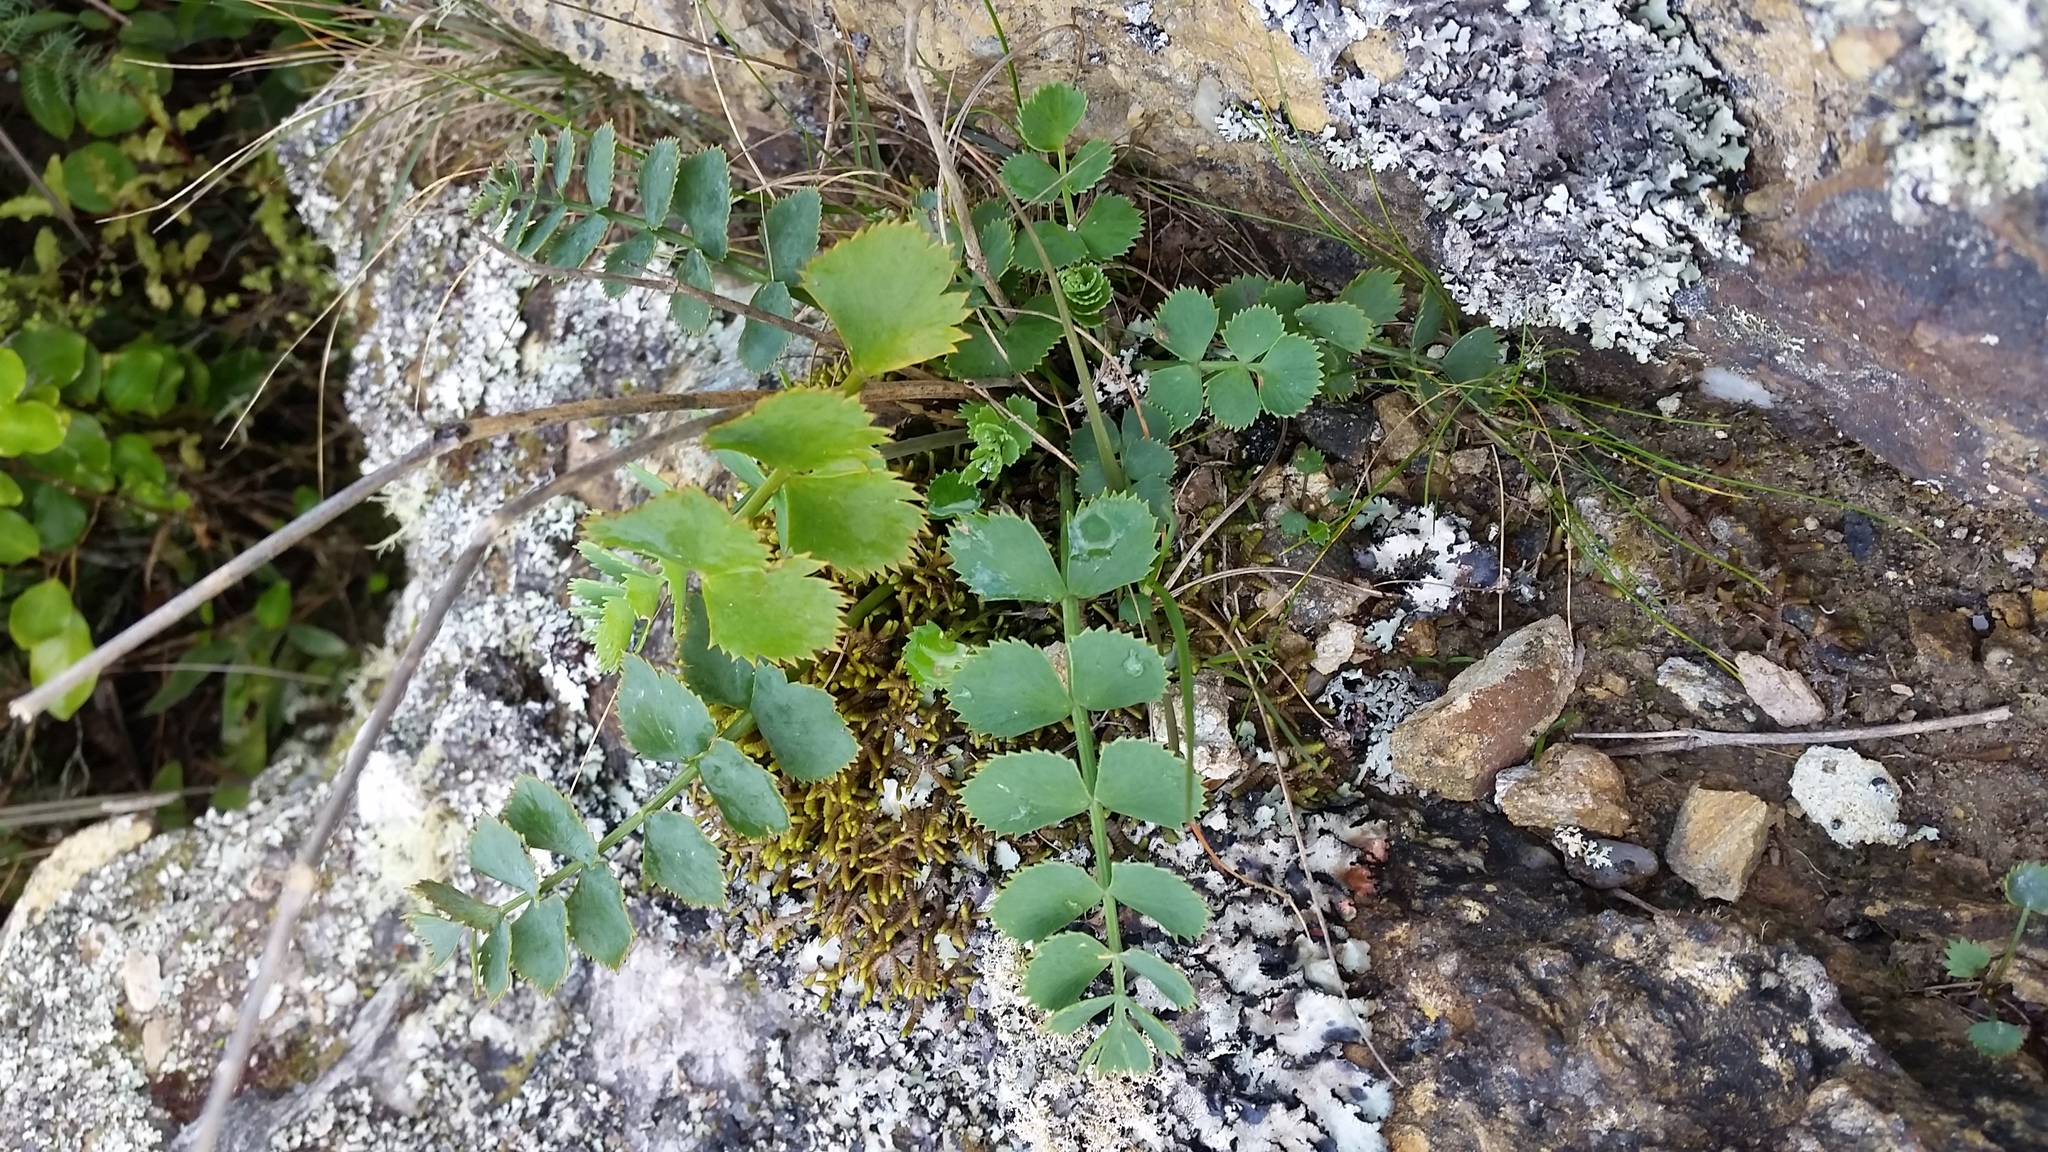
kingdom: Plantae
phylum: Tracheophyta
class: Magnoliopsida
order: Apiales
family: Apiaceae
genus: Gingidia
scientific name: Gingidia grisea
